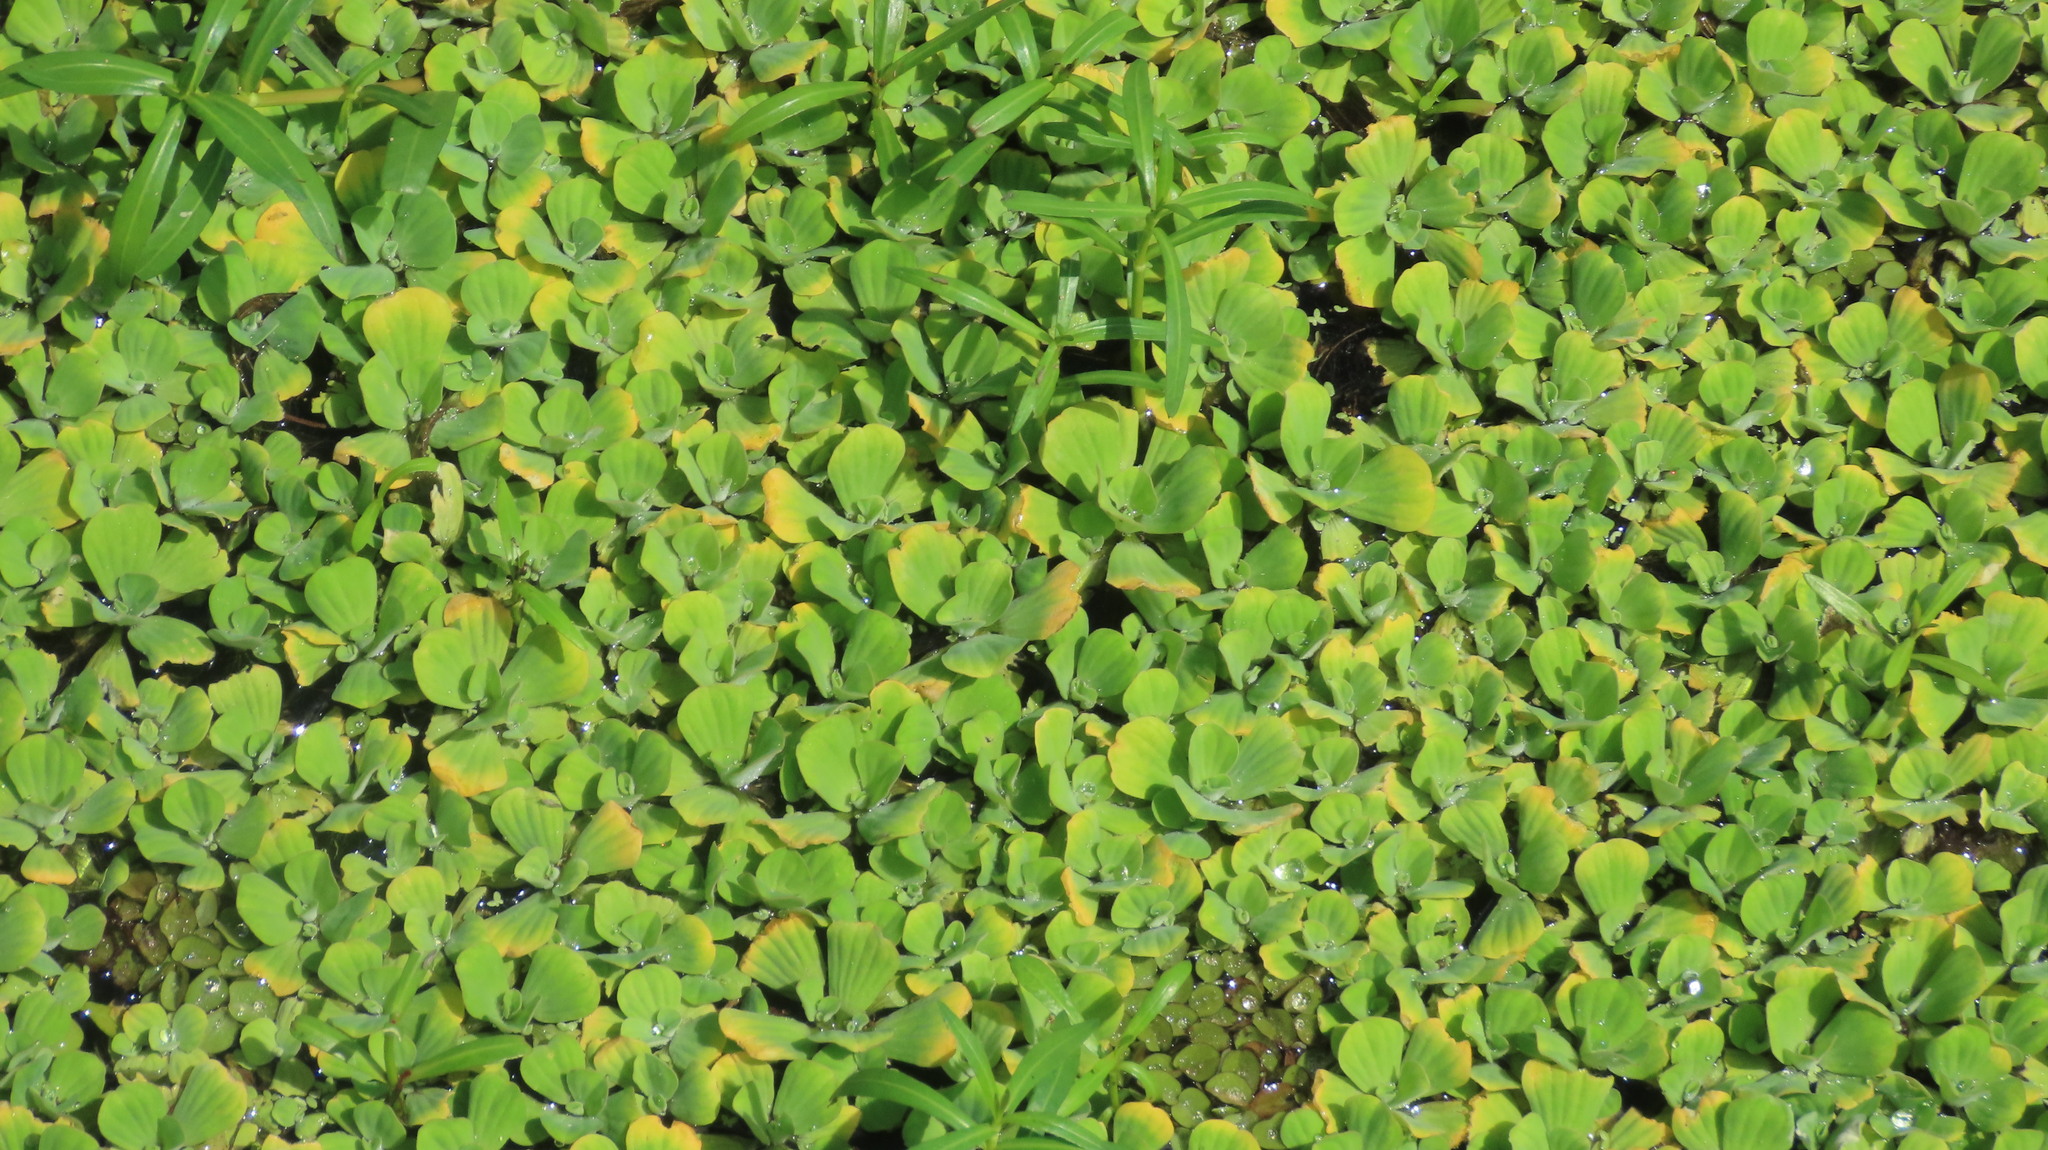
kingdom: Plantae
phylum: Tracheophyta
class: Liliopsida
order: Alismatales
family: Araceae
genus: Pistia
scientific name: Pistia stratiotes
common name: Water lettuce
